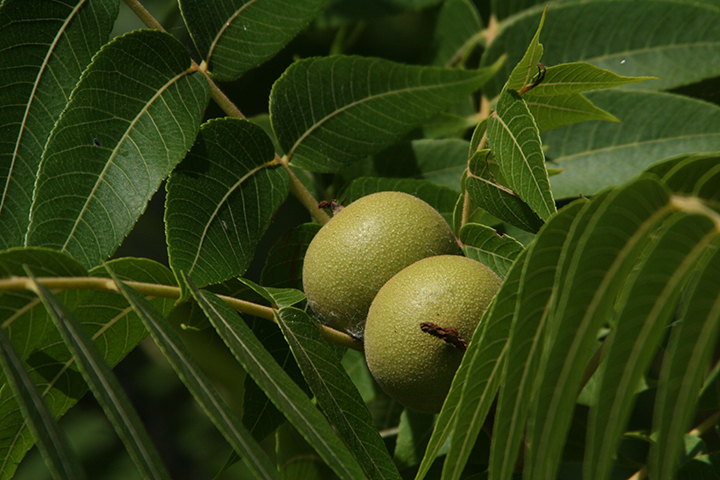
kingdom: Plantae
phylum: Tracheophyta
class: Magnoliopsida
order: Fagales
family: Juglandaceae
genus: Juglans
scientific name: Juglans nigra
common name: Black walnut
